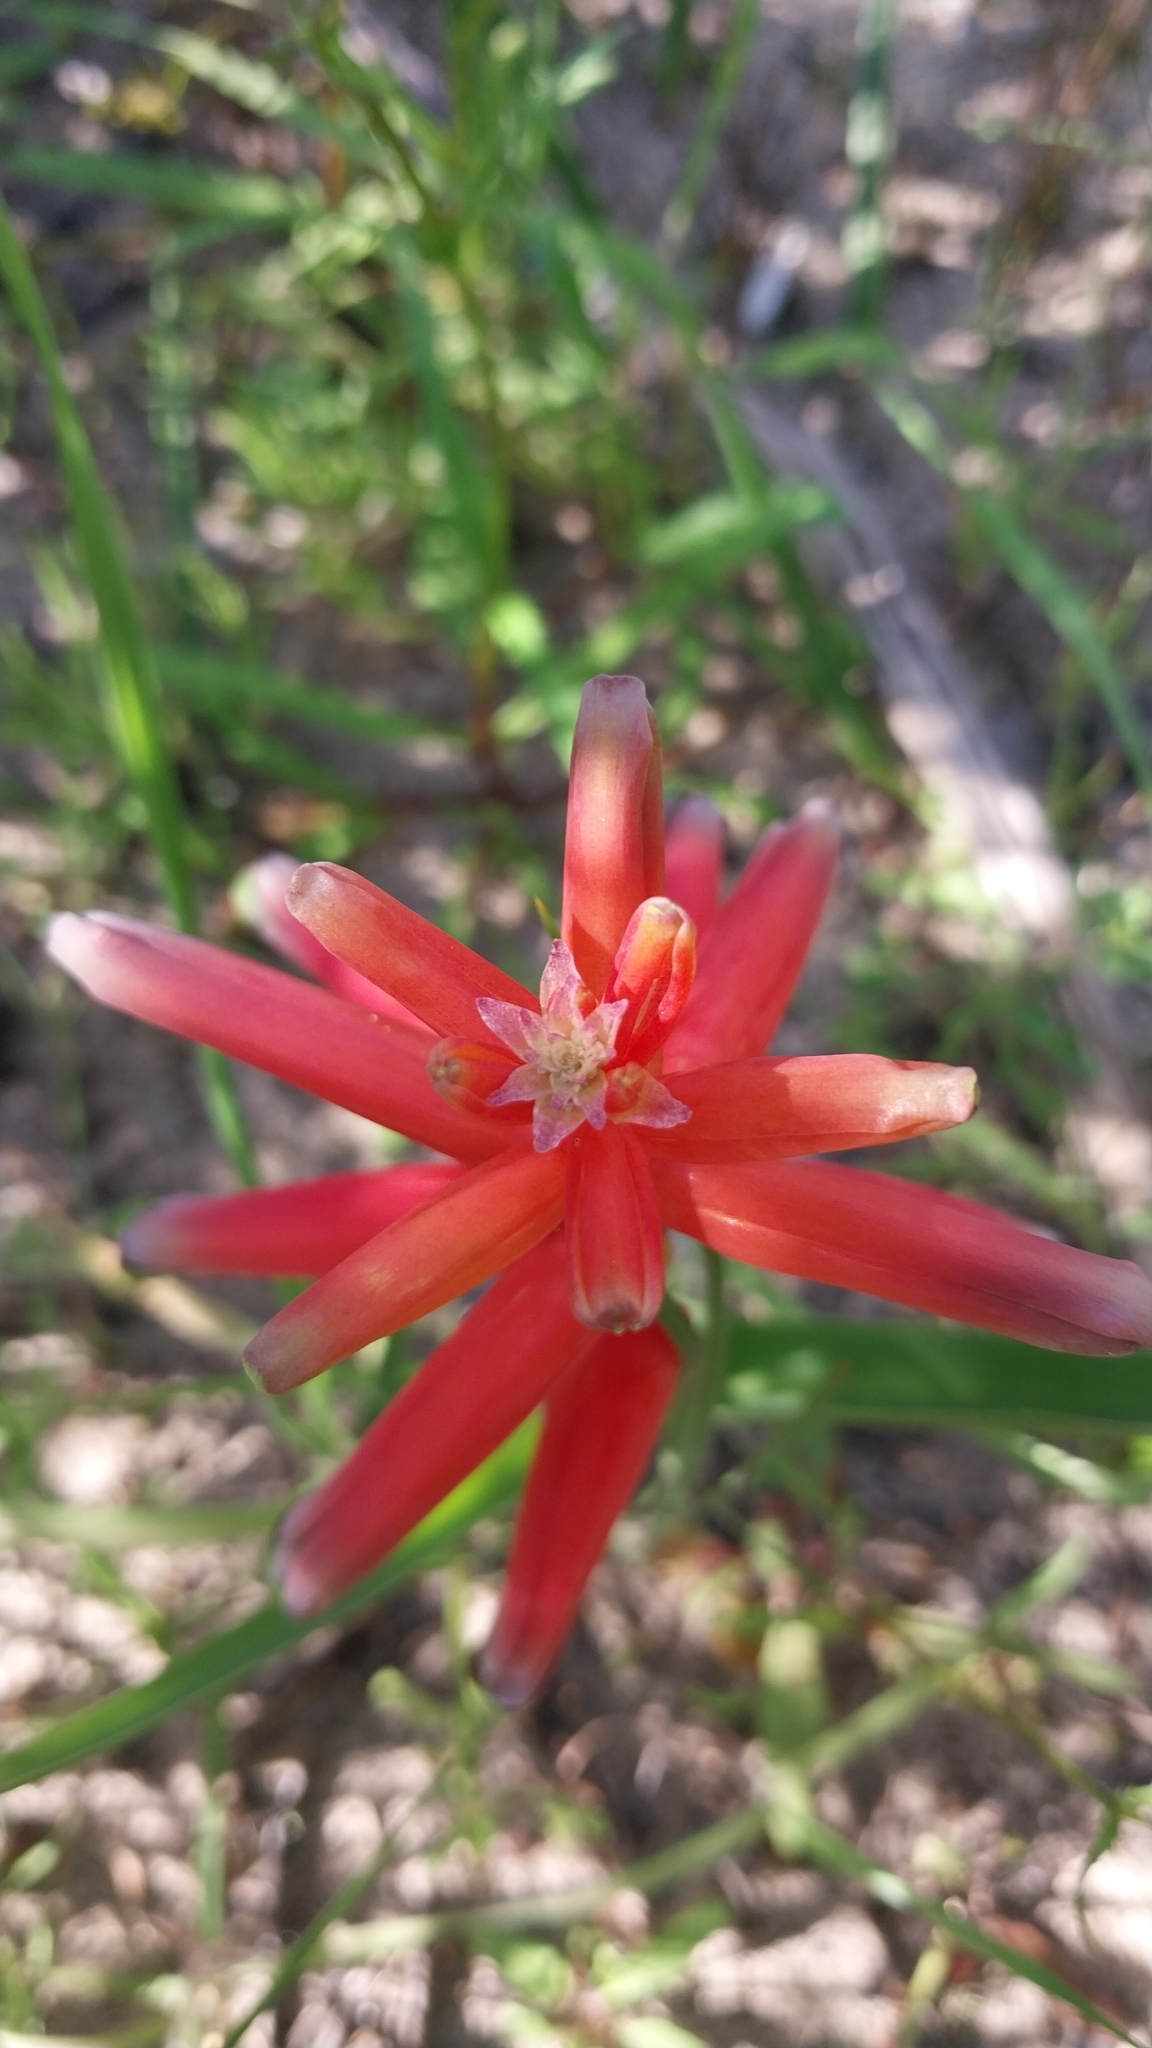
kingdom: Plantae
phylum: Tracheophyta
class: Liliopsida
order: Asparagales
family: Asparagaceae
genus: Lachenalia
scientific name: Lachenalia bulbifera
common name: Red lachenalia
